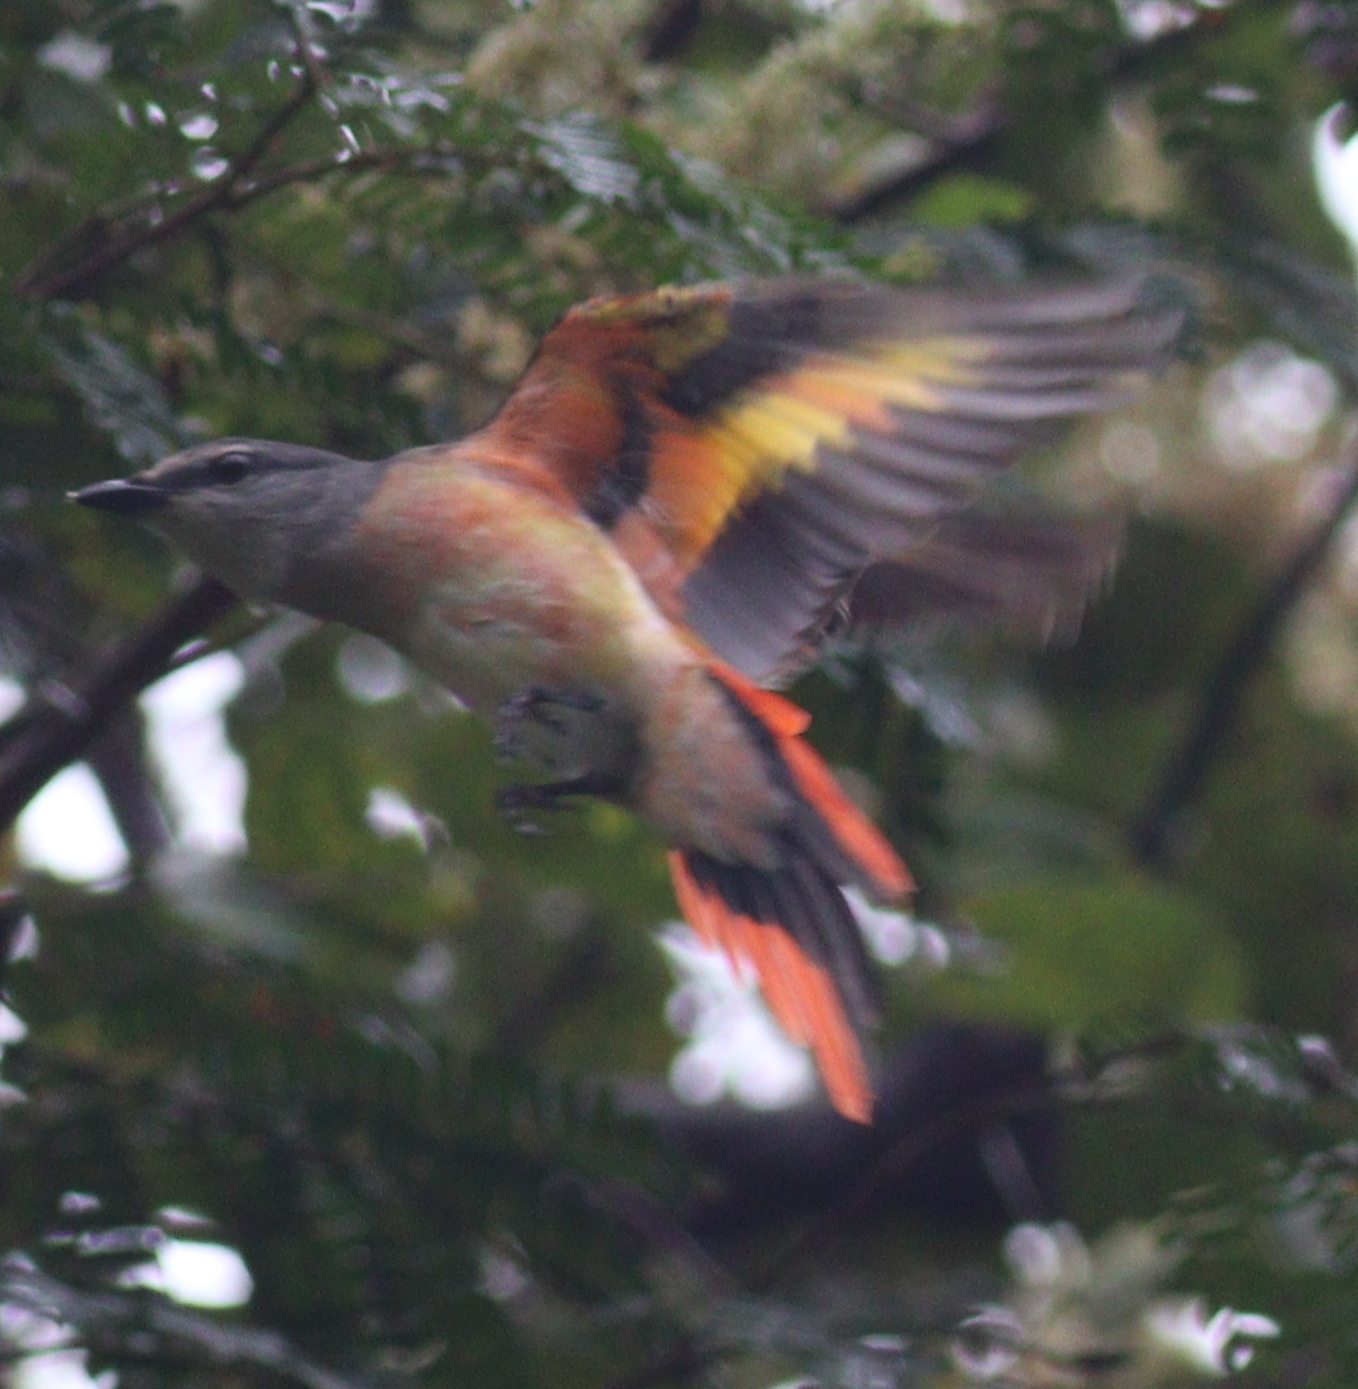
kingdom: Animalia
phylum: Chordata
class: Aves
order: Passeriformes
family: Campephagidae
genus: Pericrocotus
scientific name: Pericrocotus roseus
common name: Rosy minivet
